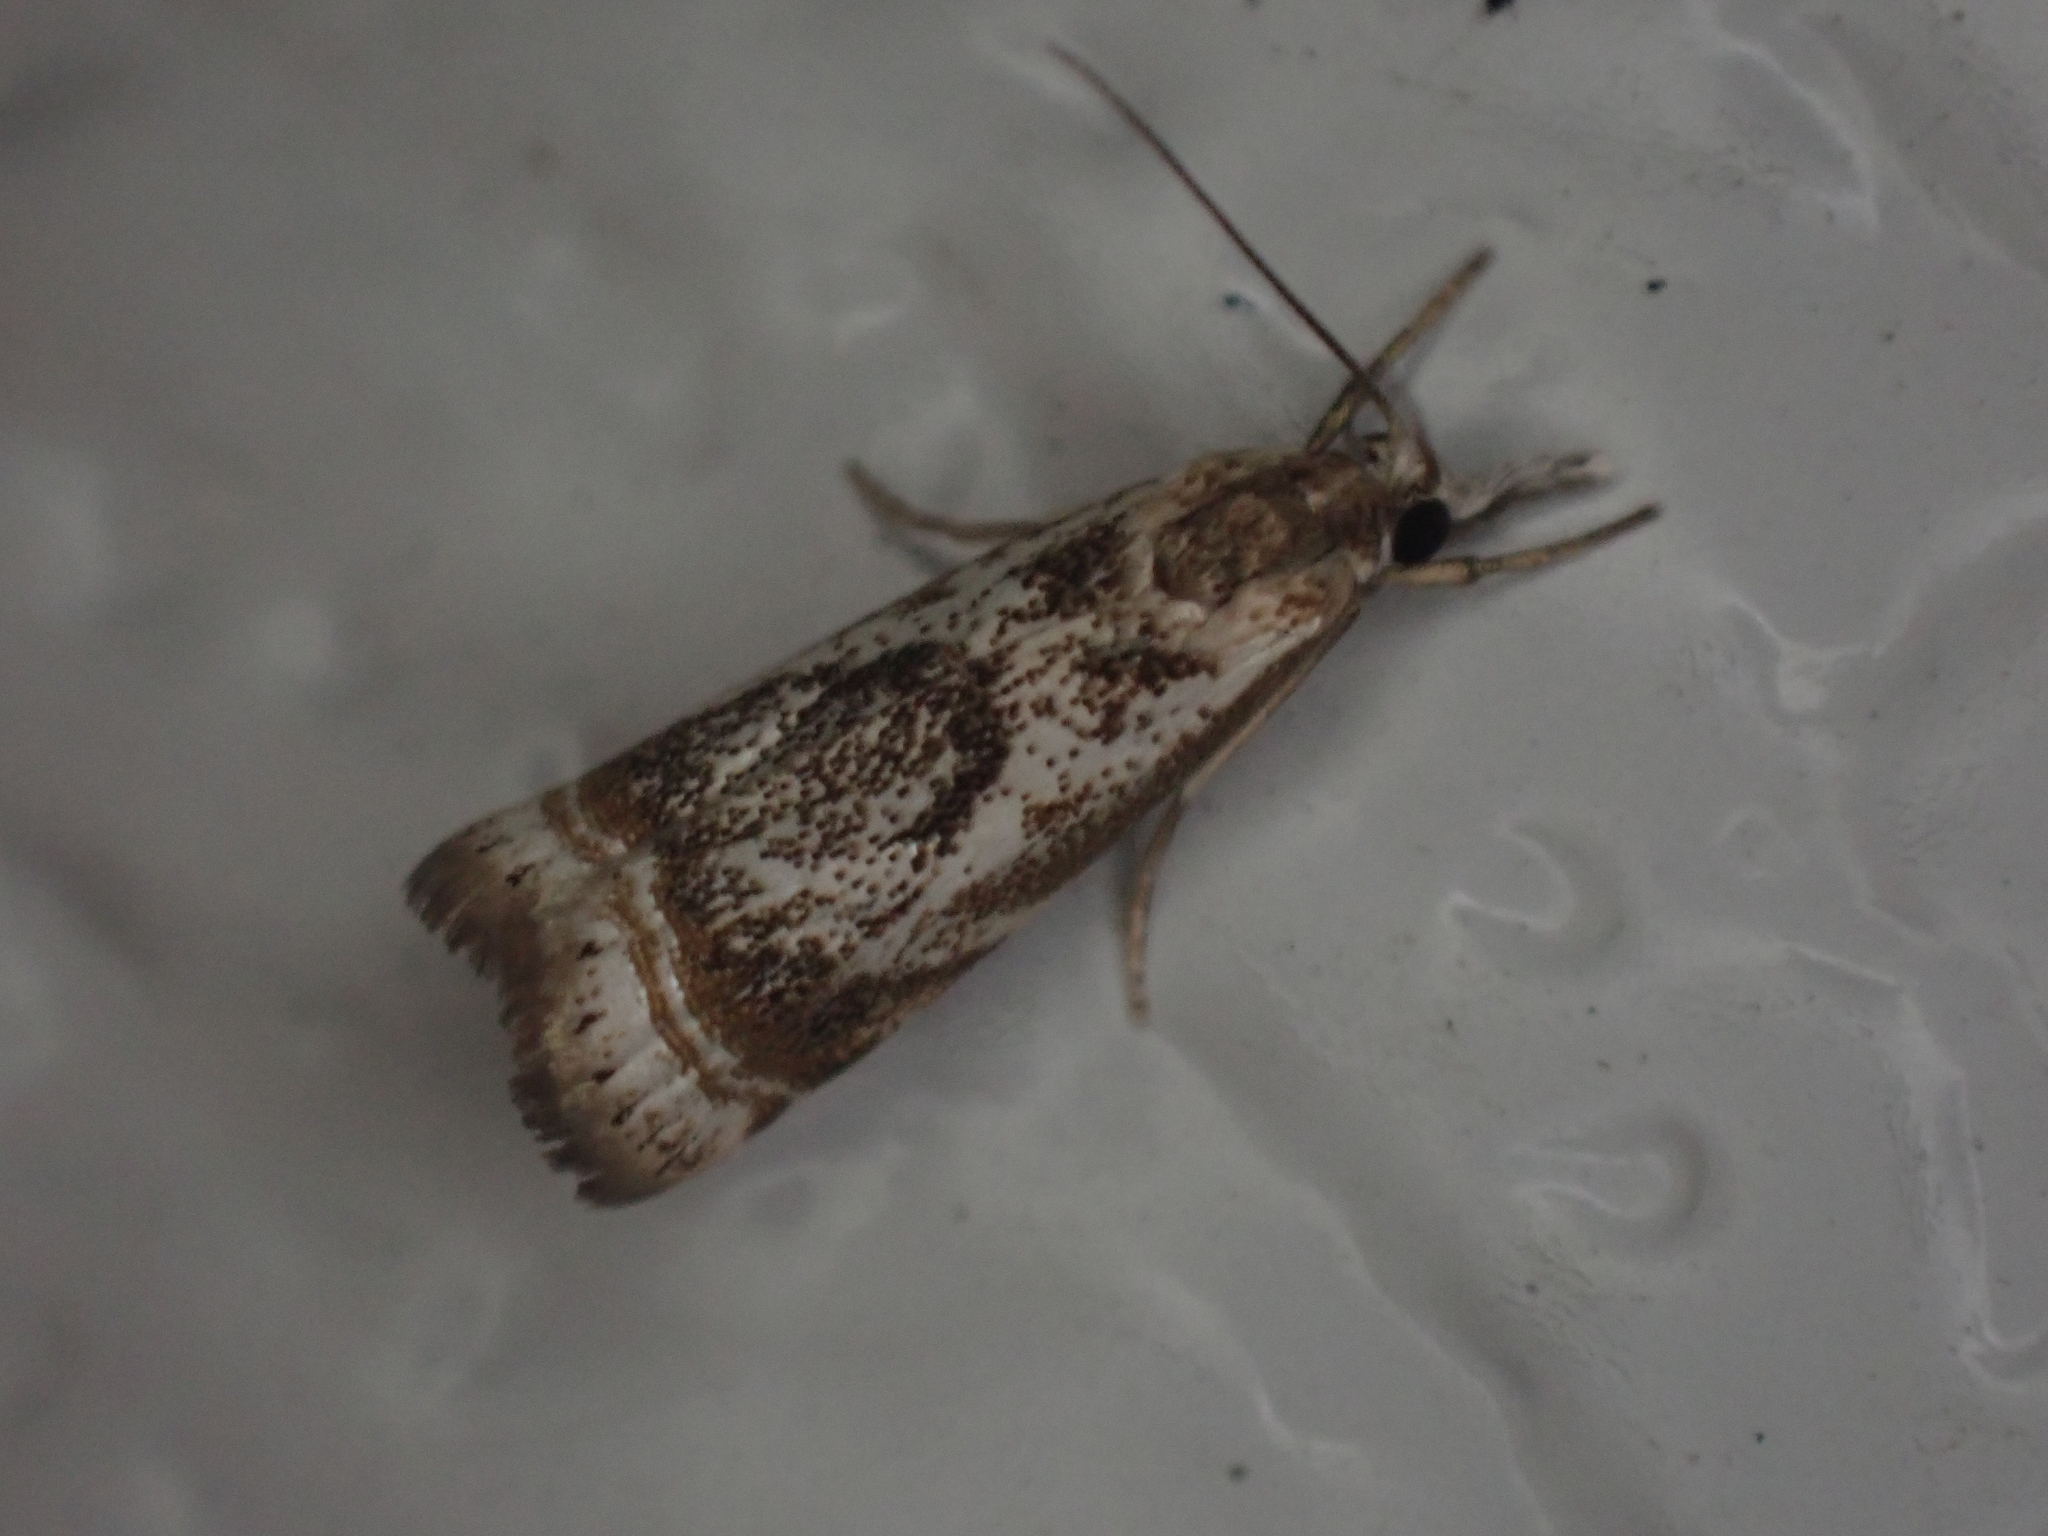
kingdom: Animalia
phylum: Arthropoda
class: Insecta
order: Lepidoptera
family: Crambidae
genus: Microcrambus
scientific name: Microcrambus elegans
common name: Elegant grass-veneer
